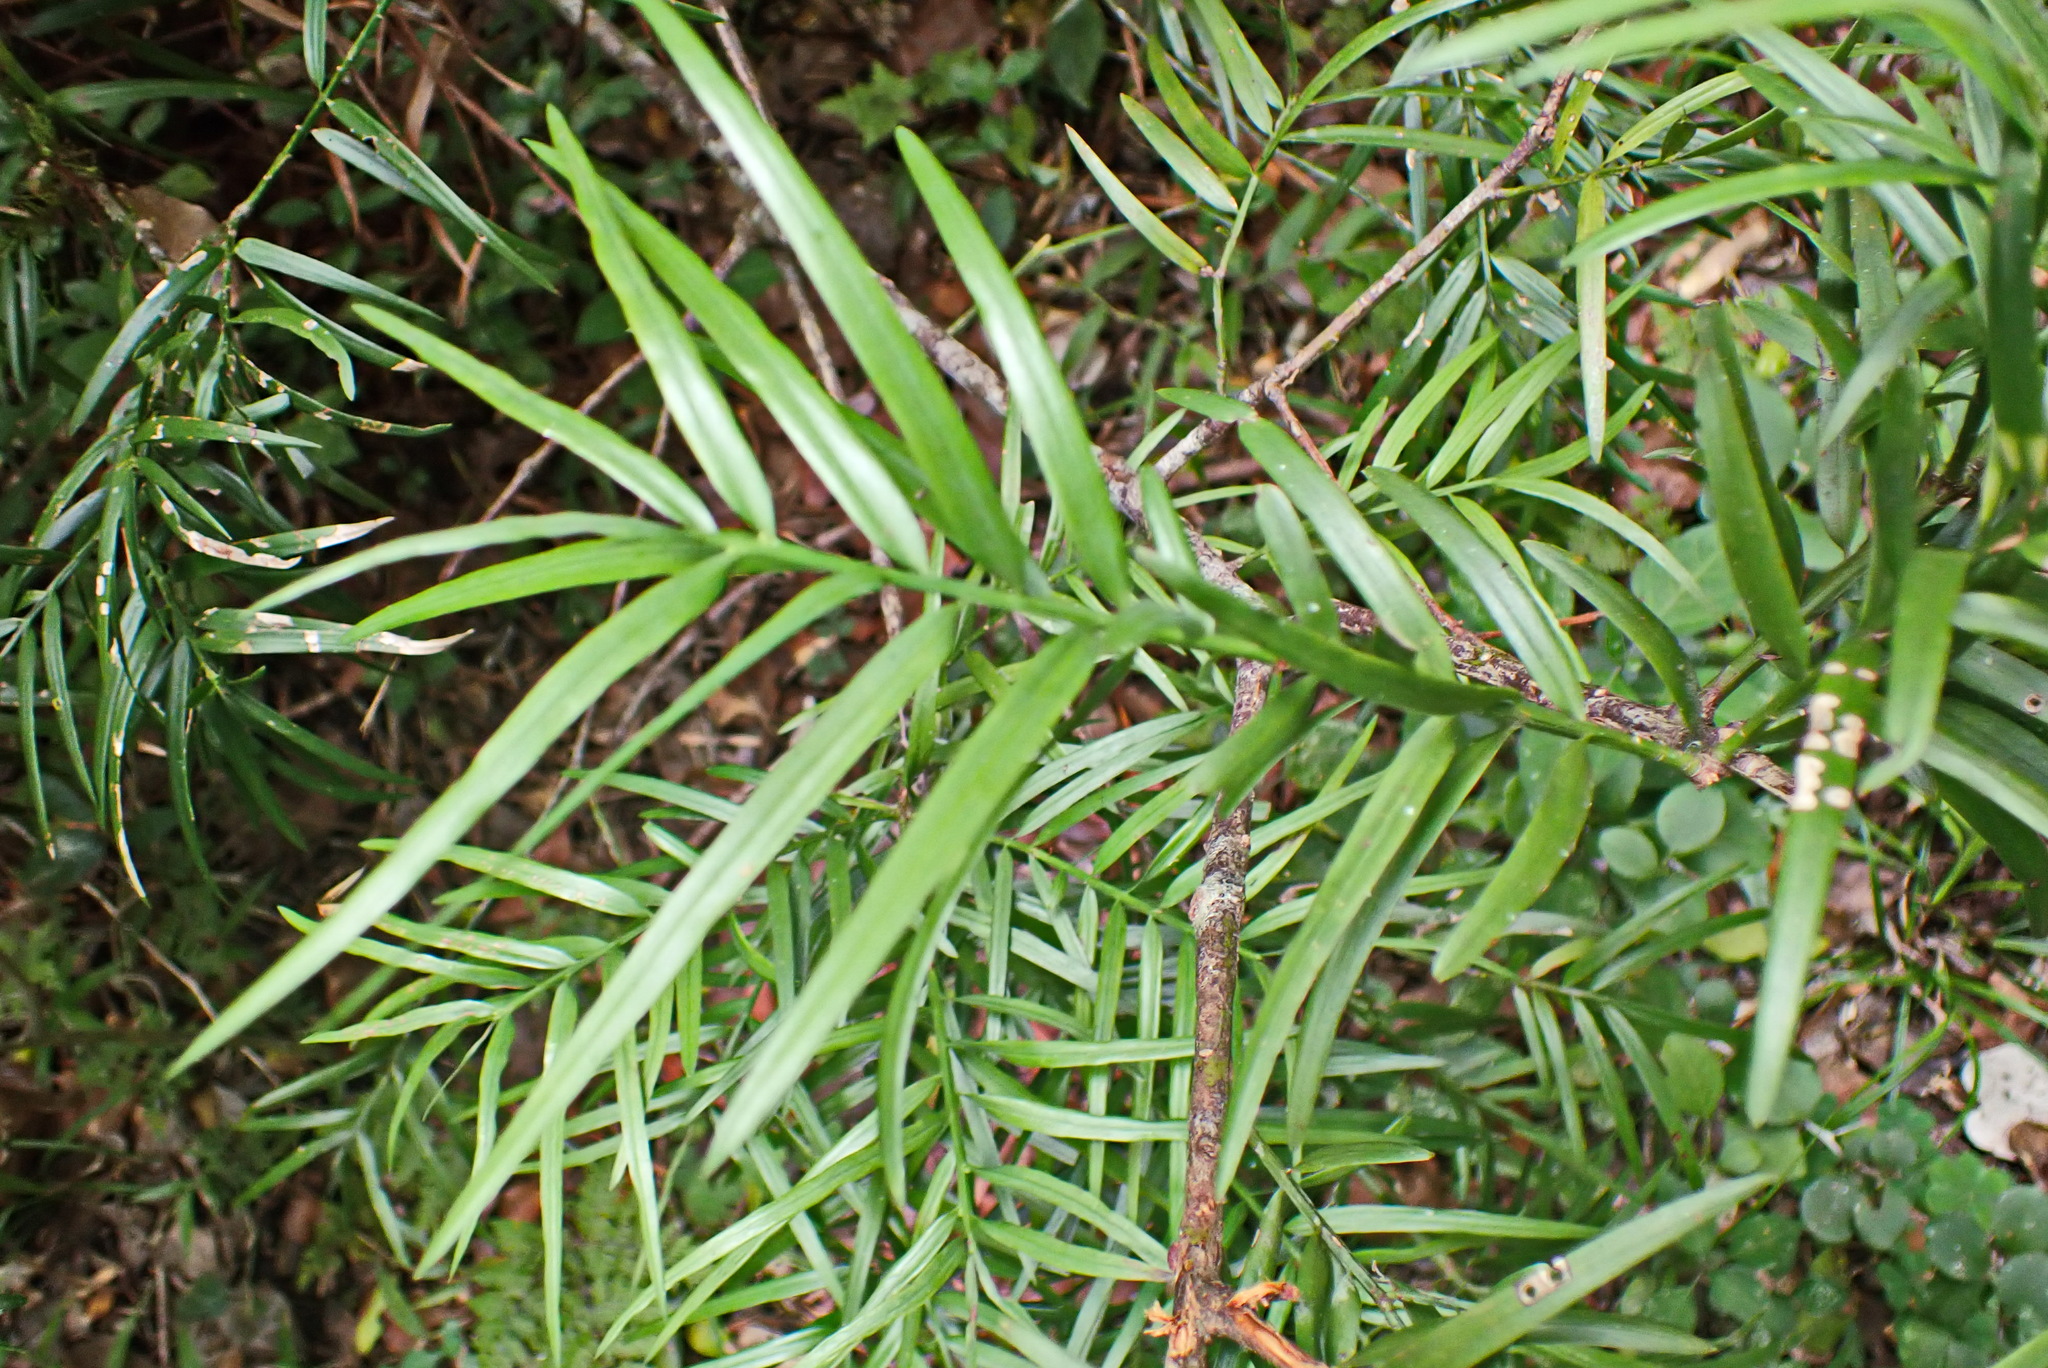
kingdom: Plantae
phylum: Tracheophyta
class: Pinopsida
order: Pinales
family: Podocarpaceae
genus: Afrocarpus
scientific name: Afrocarpus falcatus
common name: Bastard yellowwood
